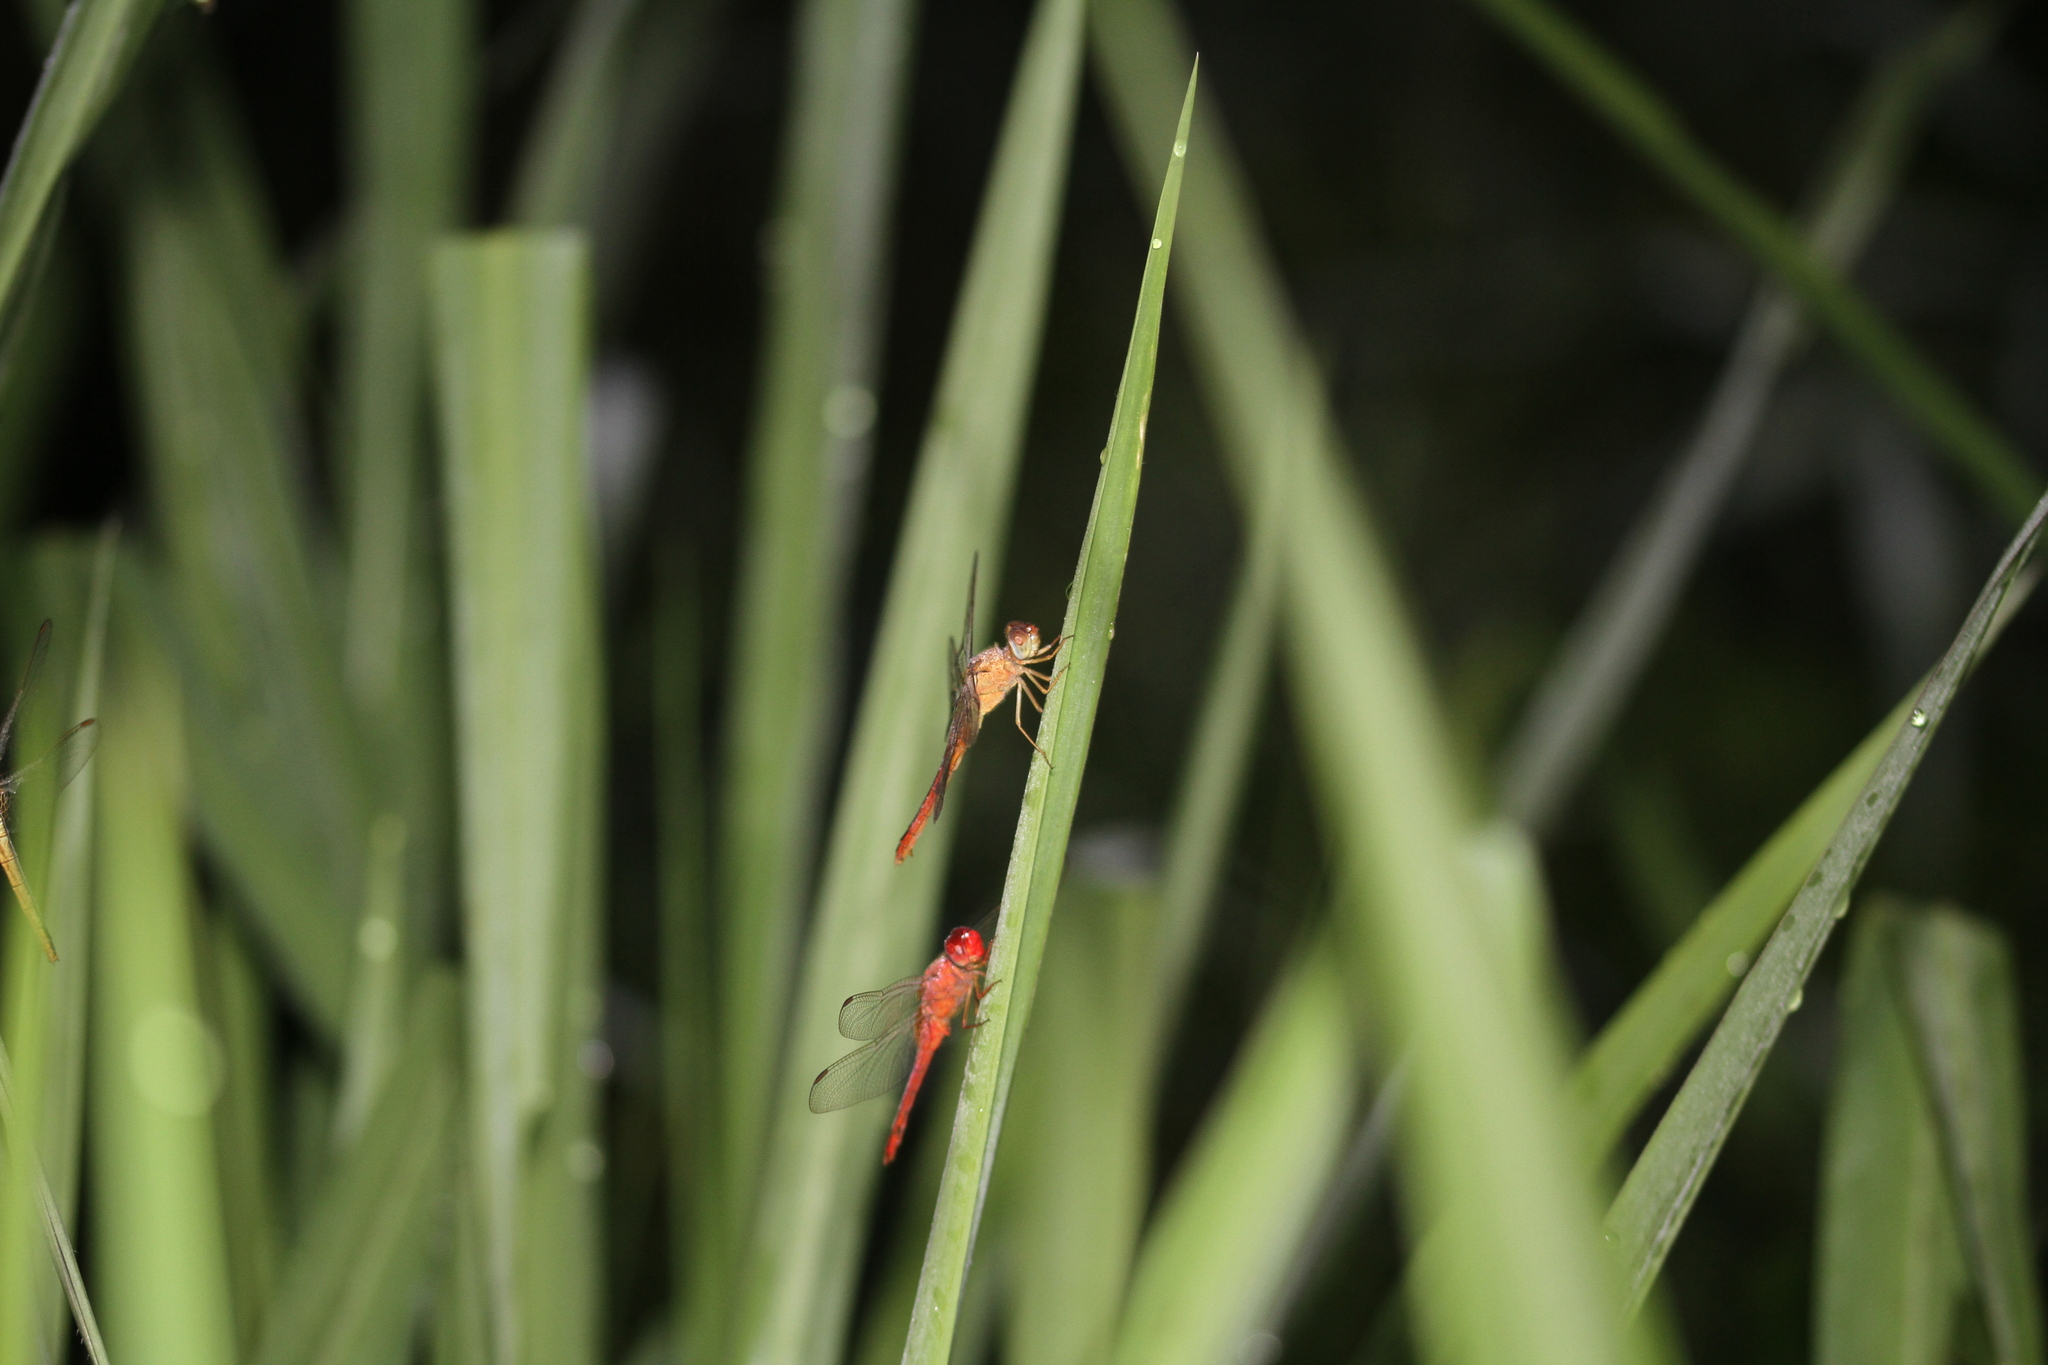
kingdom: Animalia
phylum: Arthropoda
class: Insecta
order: Odonata
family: Libellulidae
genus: Crocothemis
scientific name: Crocothemis servilia
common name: Scarlet skimmer
